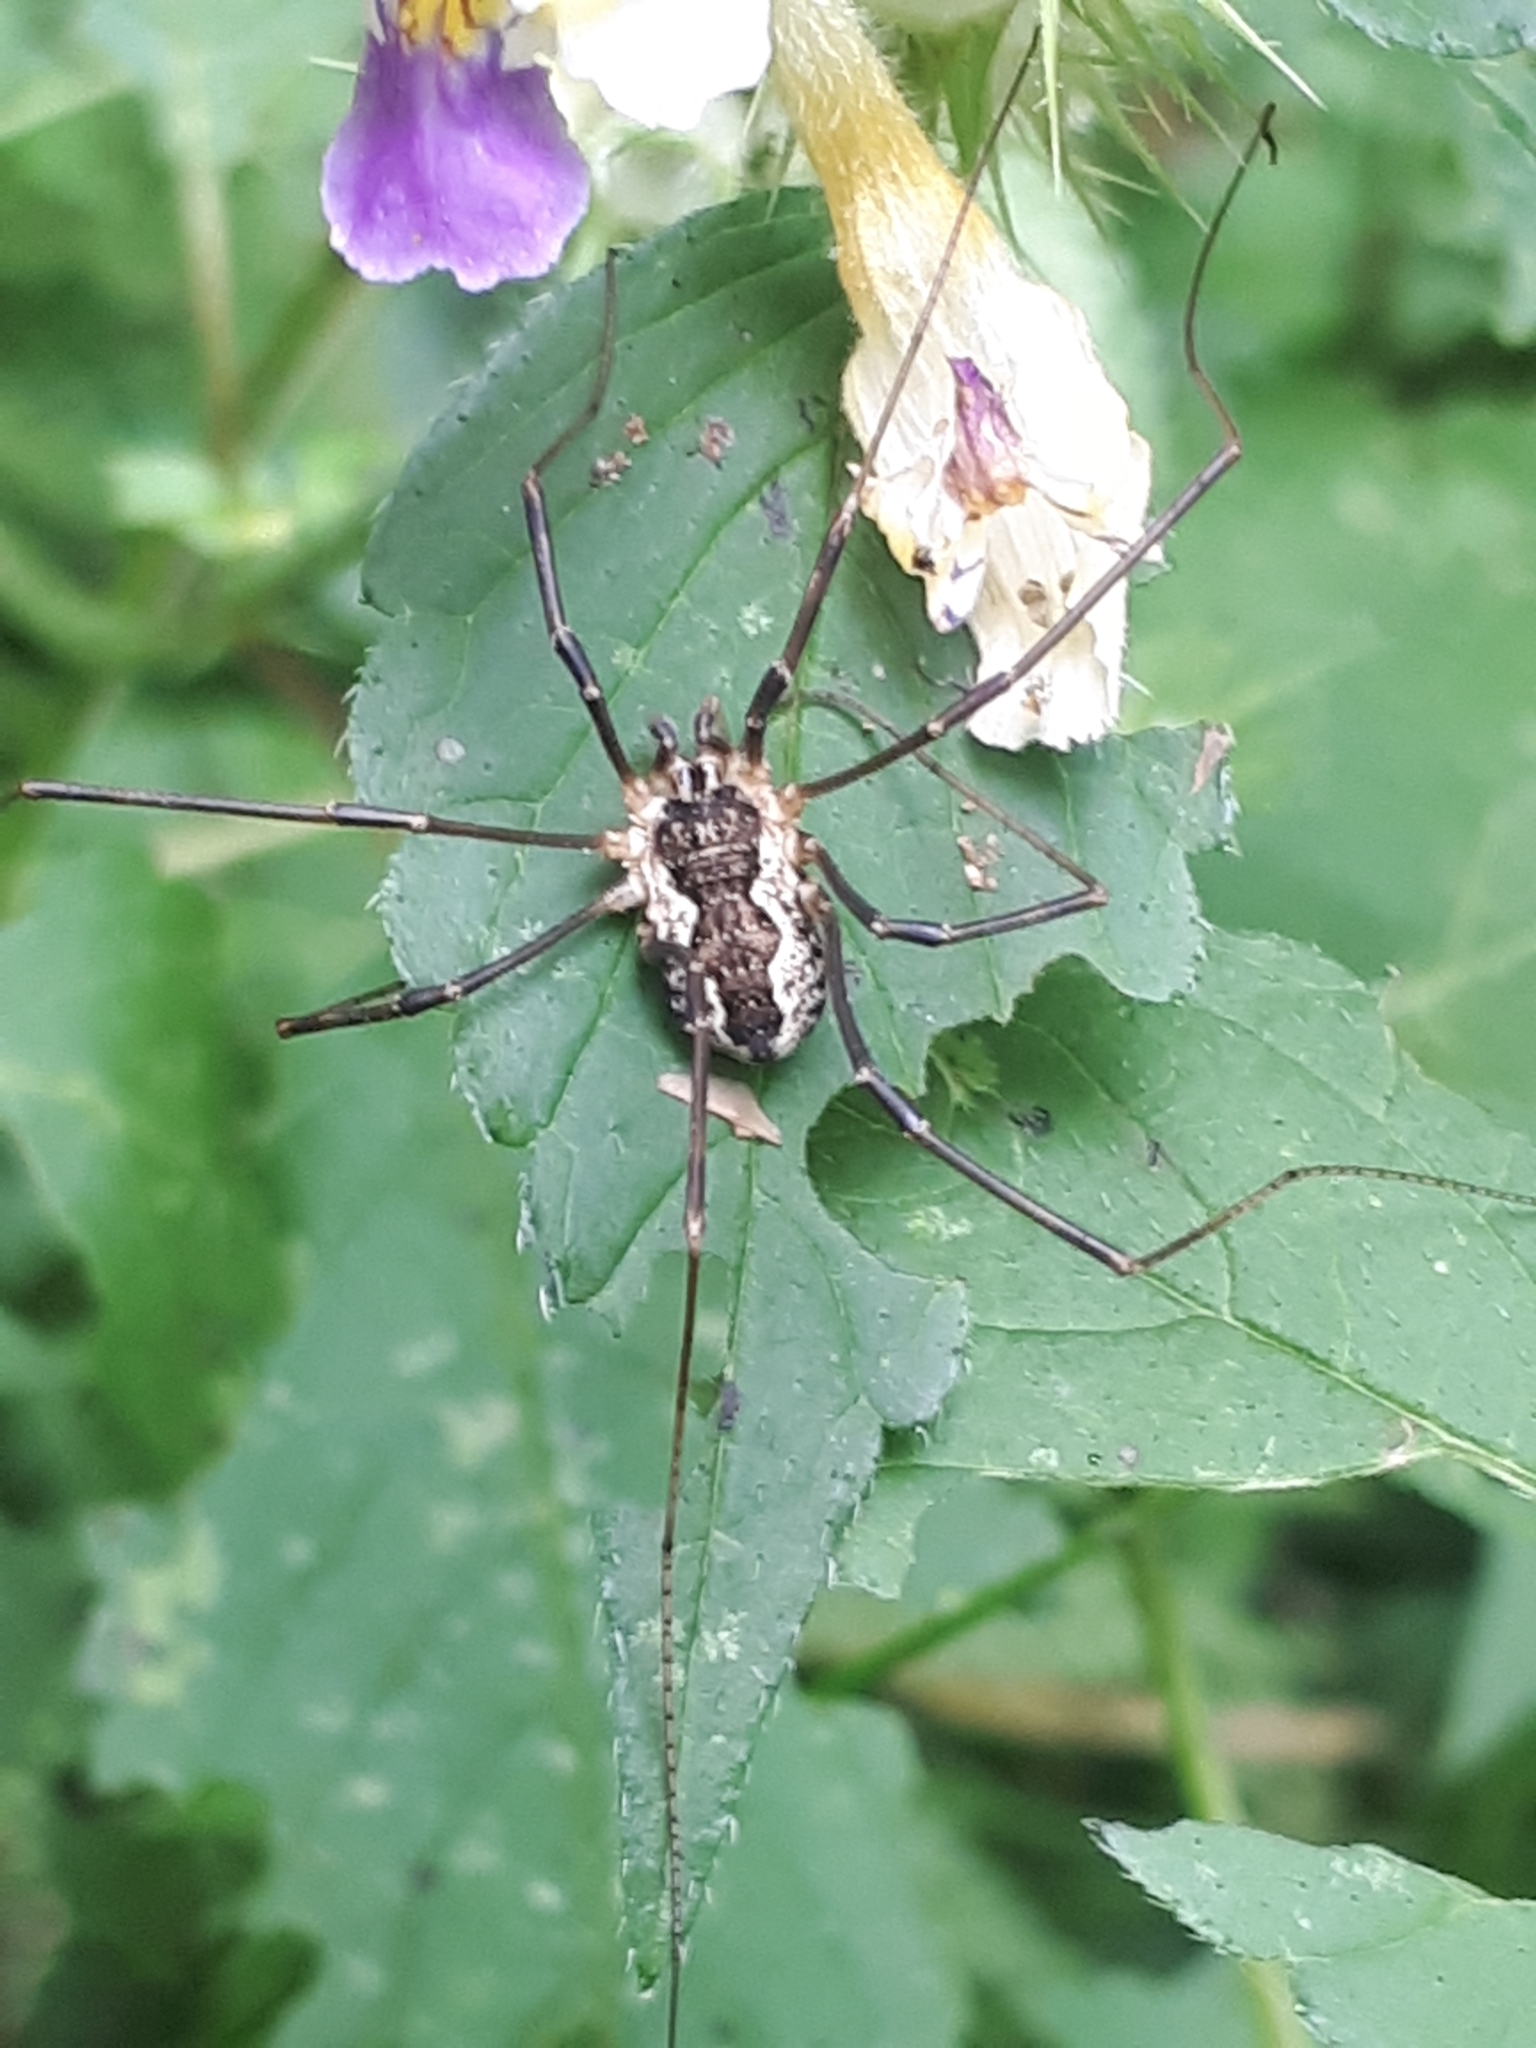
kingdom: Animalia
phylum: Arthropoda
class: Arachnida
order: Opiliones
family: Phalangiidae
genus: Mitopus
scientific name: Mitopus morio
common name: Saddleback harvestman
